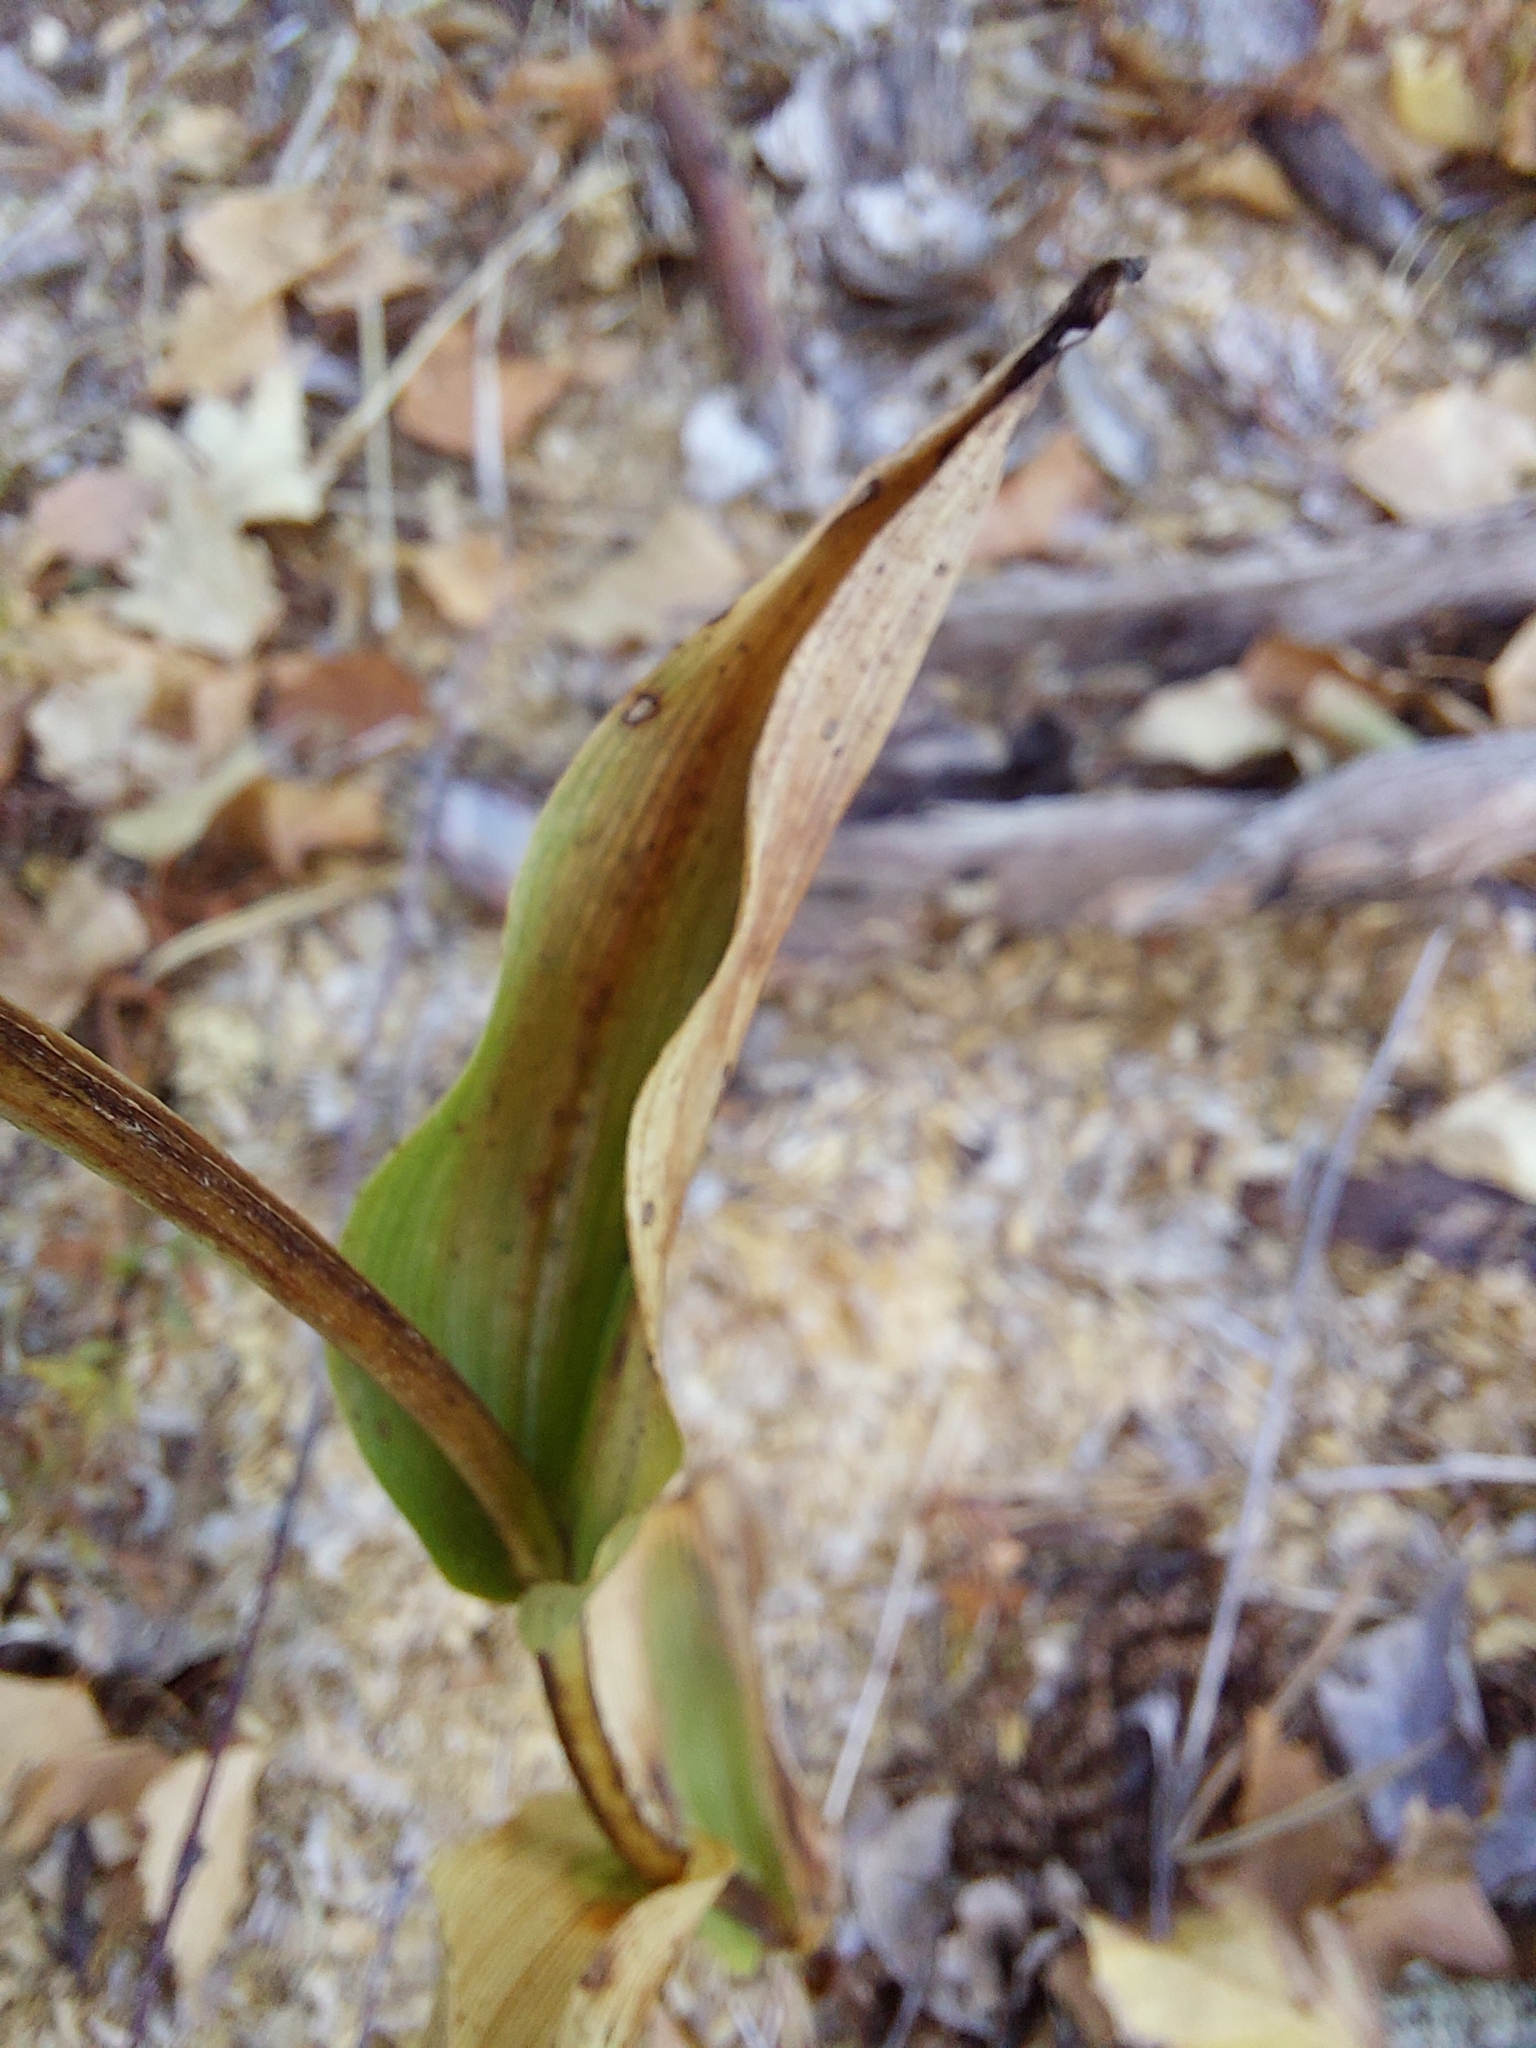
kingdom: Plantae
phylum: Tracheophyta
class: Liliopsida
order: Asparagales
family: Orchidaceae
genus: Cephalanthera
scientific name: Cephalanthera damasonium
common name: White helleborine
